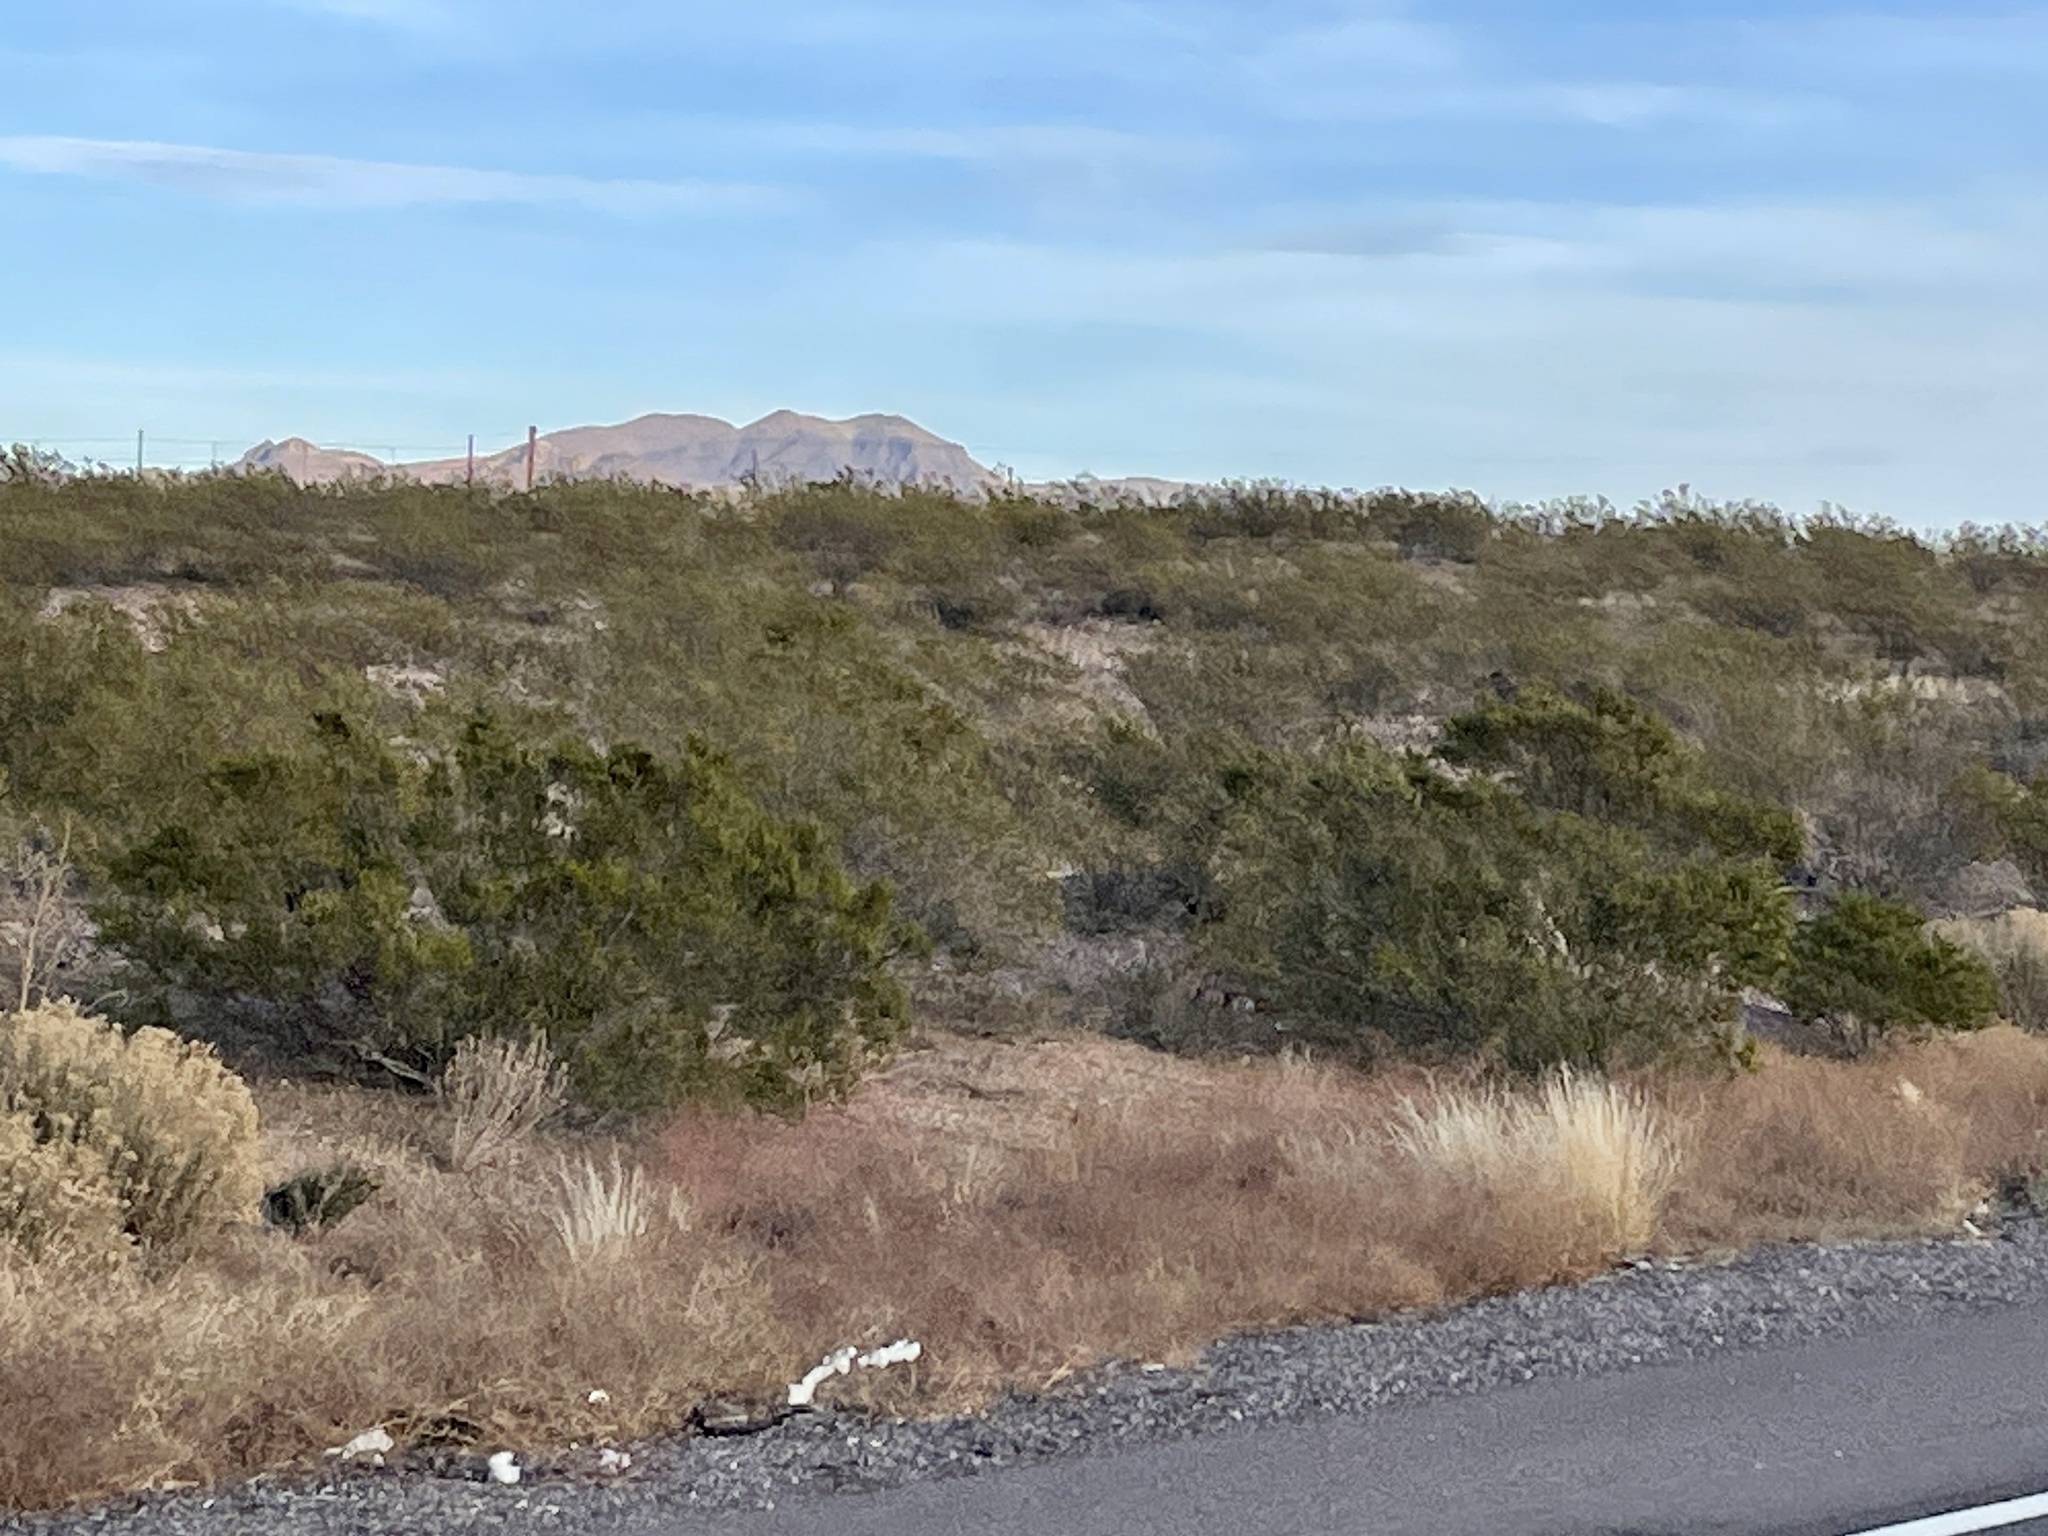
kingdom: Plantae
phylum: Tracheophyta
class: Magnoliopsida
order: Zygophyllales
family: Zygophyllaceae
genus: Larrea
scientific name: Larrea tridentata
